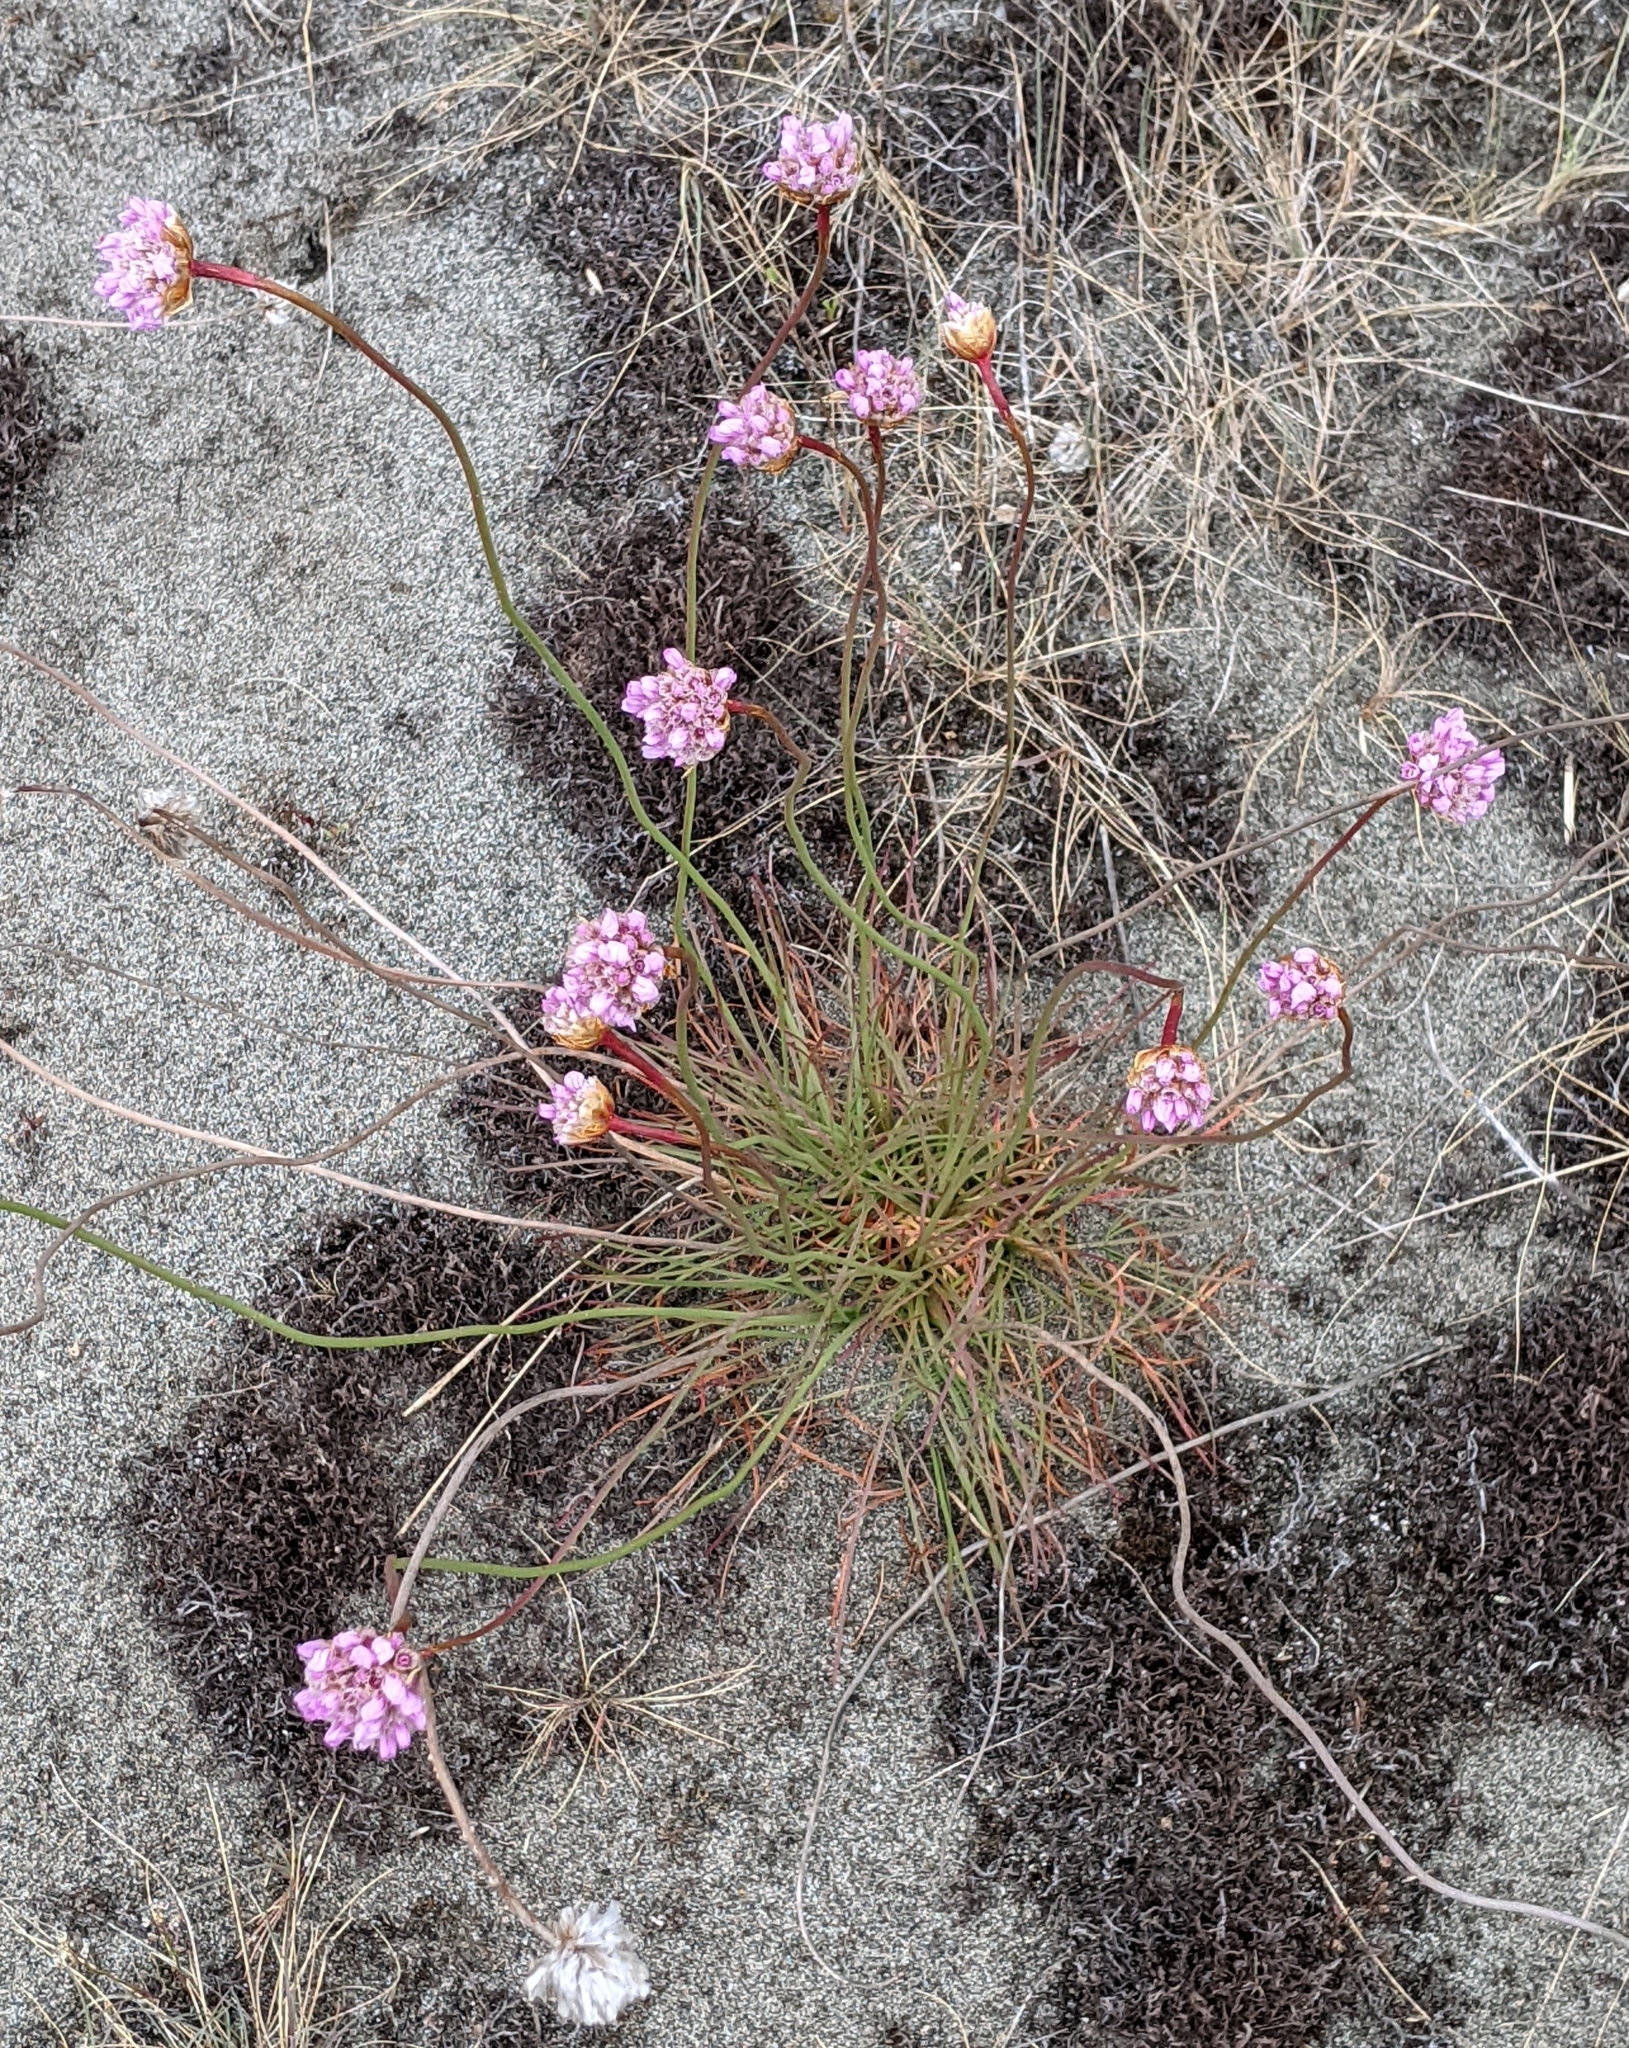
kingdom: Plantae
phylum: Tracheophyta
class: Magnoliopsida
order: Caryophyllales
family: Plumbaginaceae
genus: Armeria
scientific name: Armeria maritima
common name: Thrift
